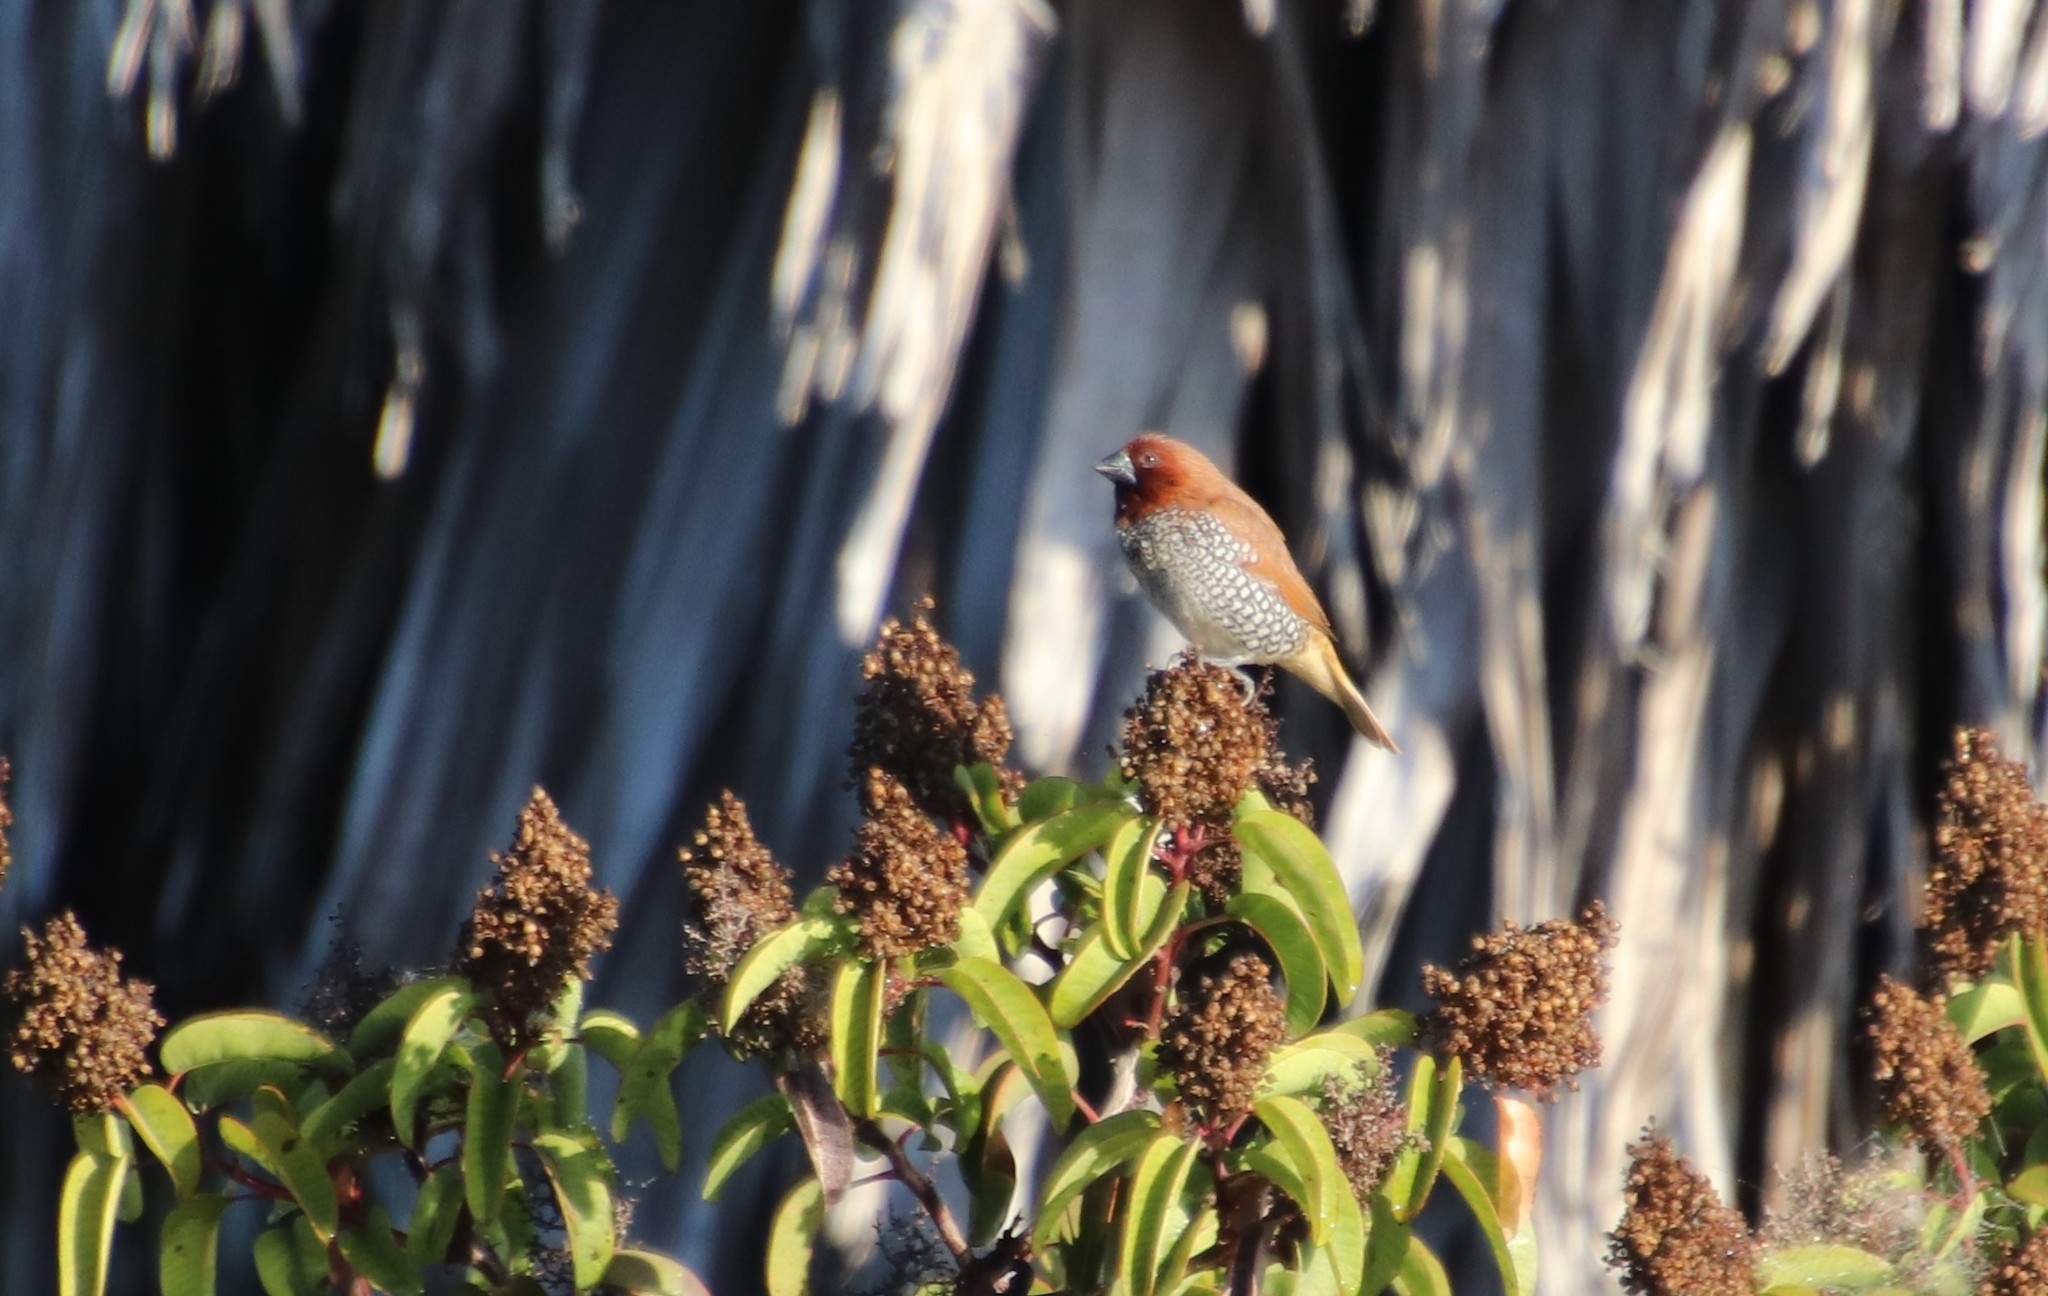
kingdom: Animalia
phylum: Chordata
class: Aves
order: Passeriformes
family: Estrildidae
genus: Lonchura
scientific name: Lonchura punctulata
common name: Scaly-breasted munia
